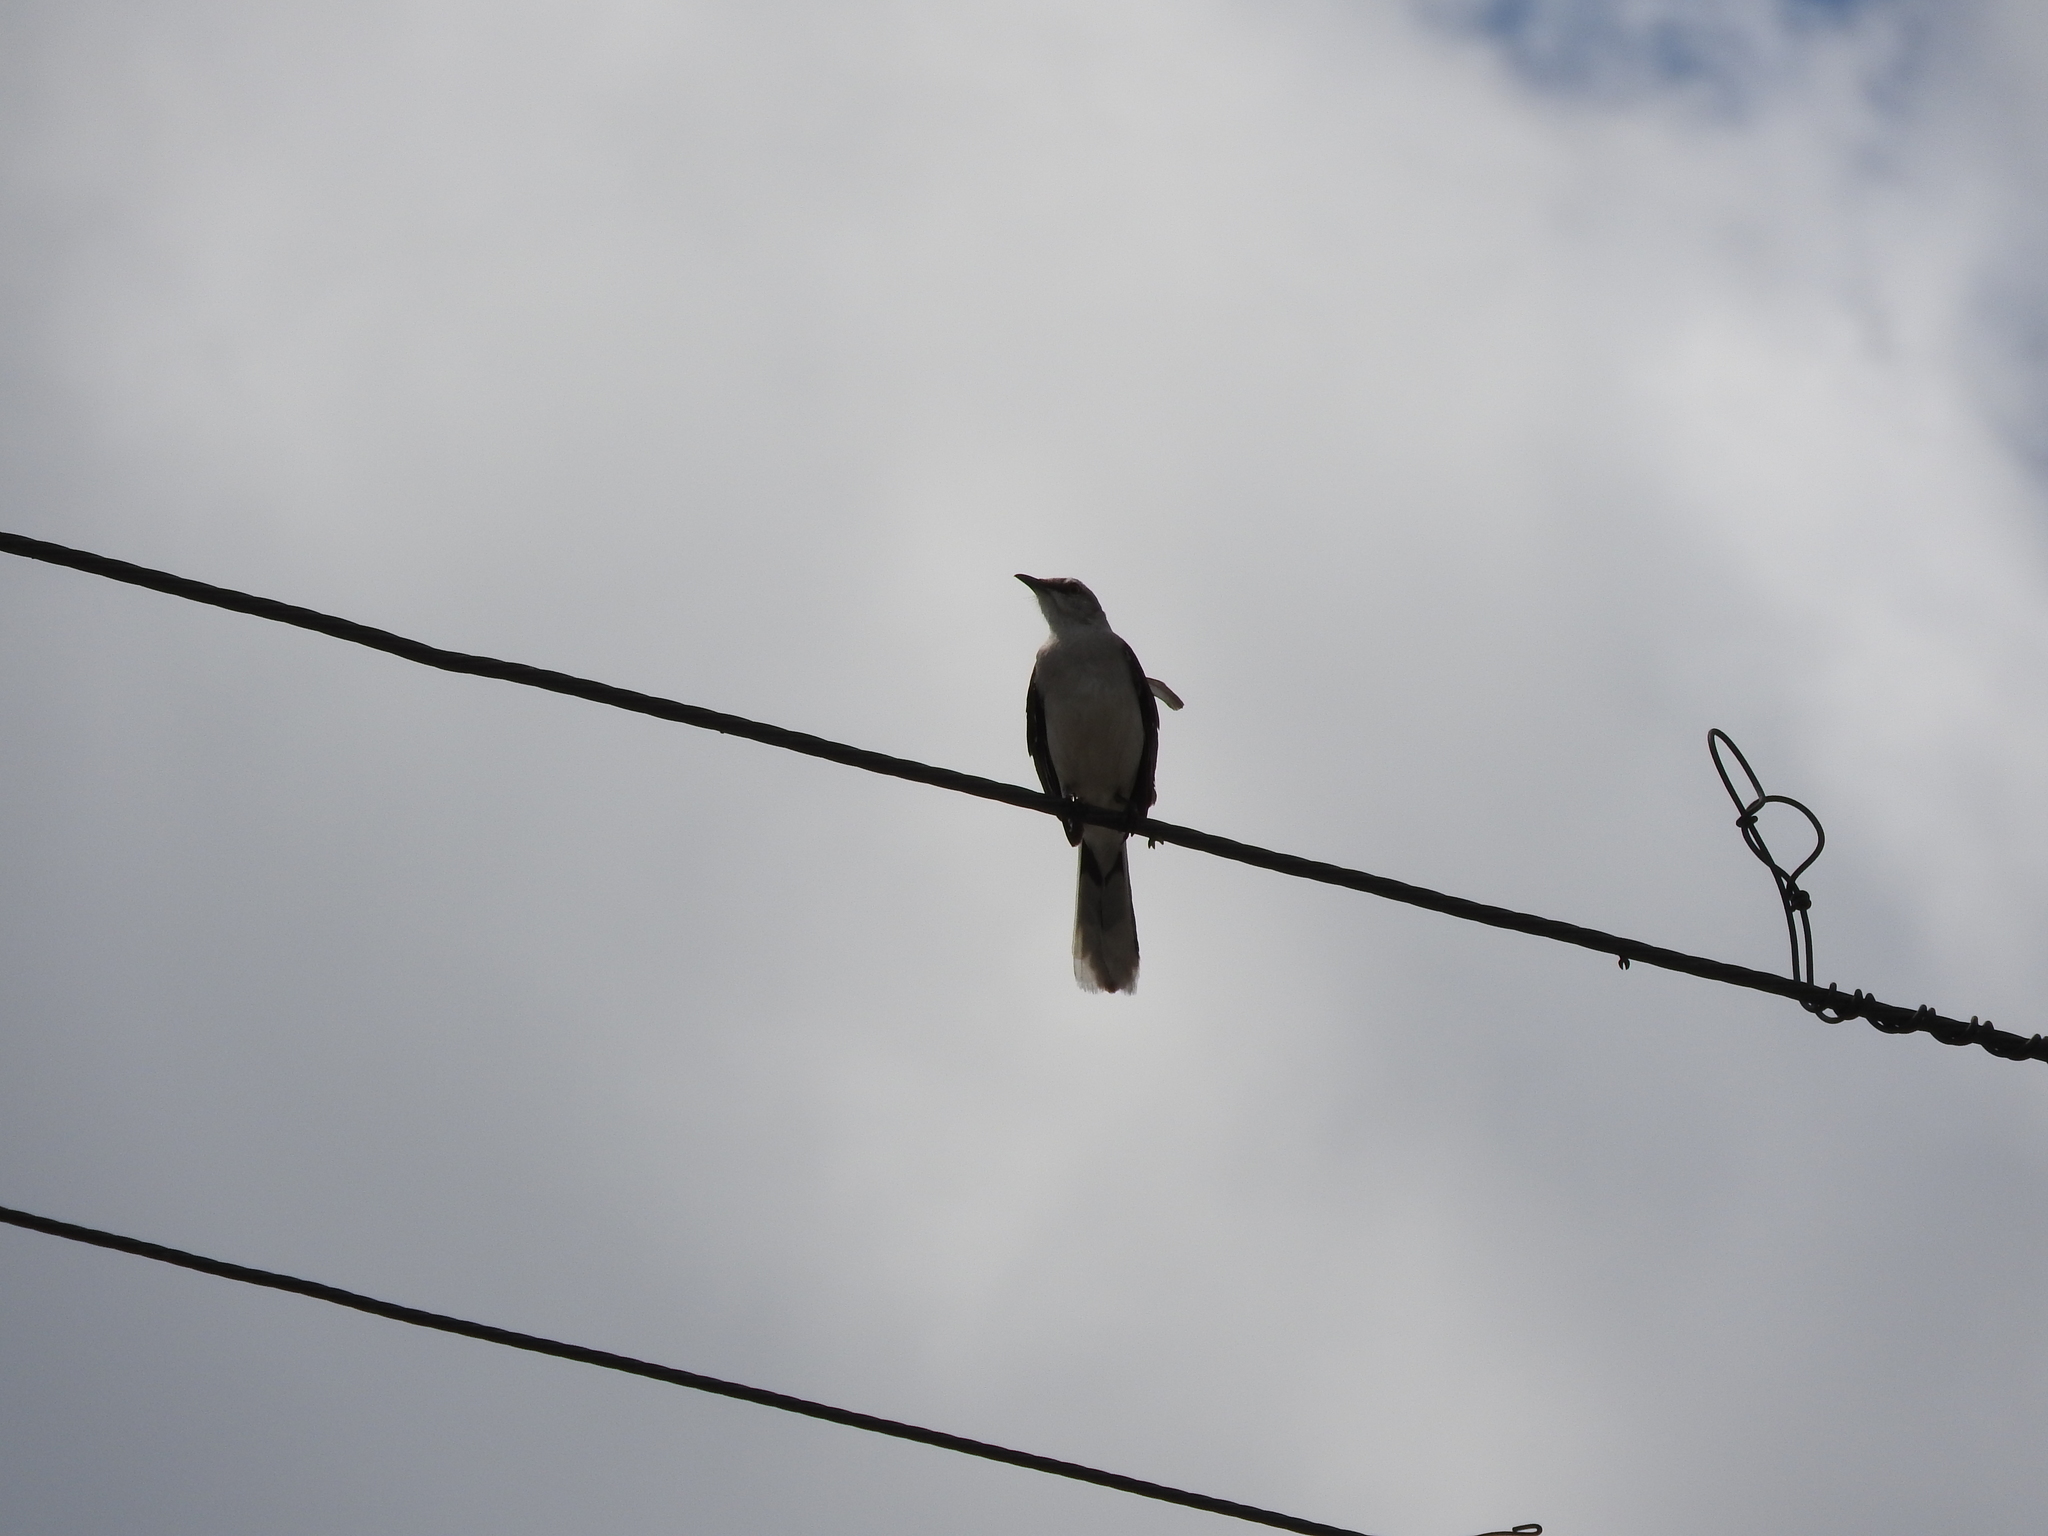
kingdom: Animalia
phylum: Chordata
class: Aves
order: Passeriformes
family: Mimidae
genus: Mimus
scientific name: Mimus gilvus
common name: Tropical mockingbird
